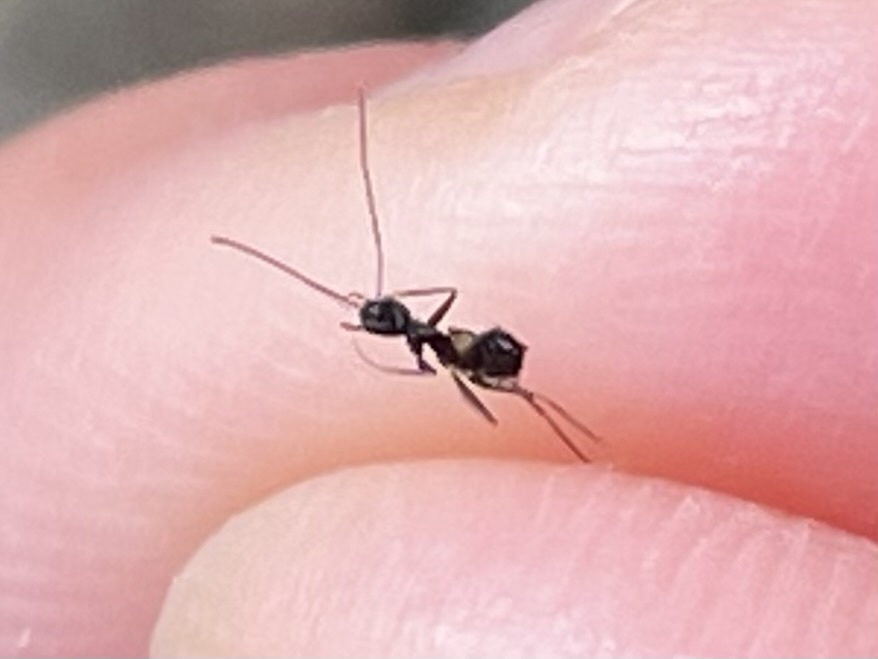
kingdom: Animalia
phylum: Arthropoda
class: Insecta
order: Hymenoptera
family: Formicidae
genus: Paratrechina
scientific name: Paratrechina longicornis
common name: Longhorned crazy ant
